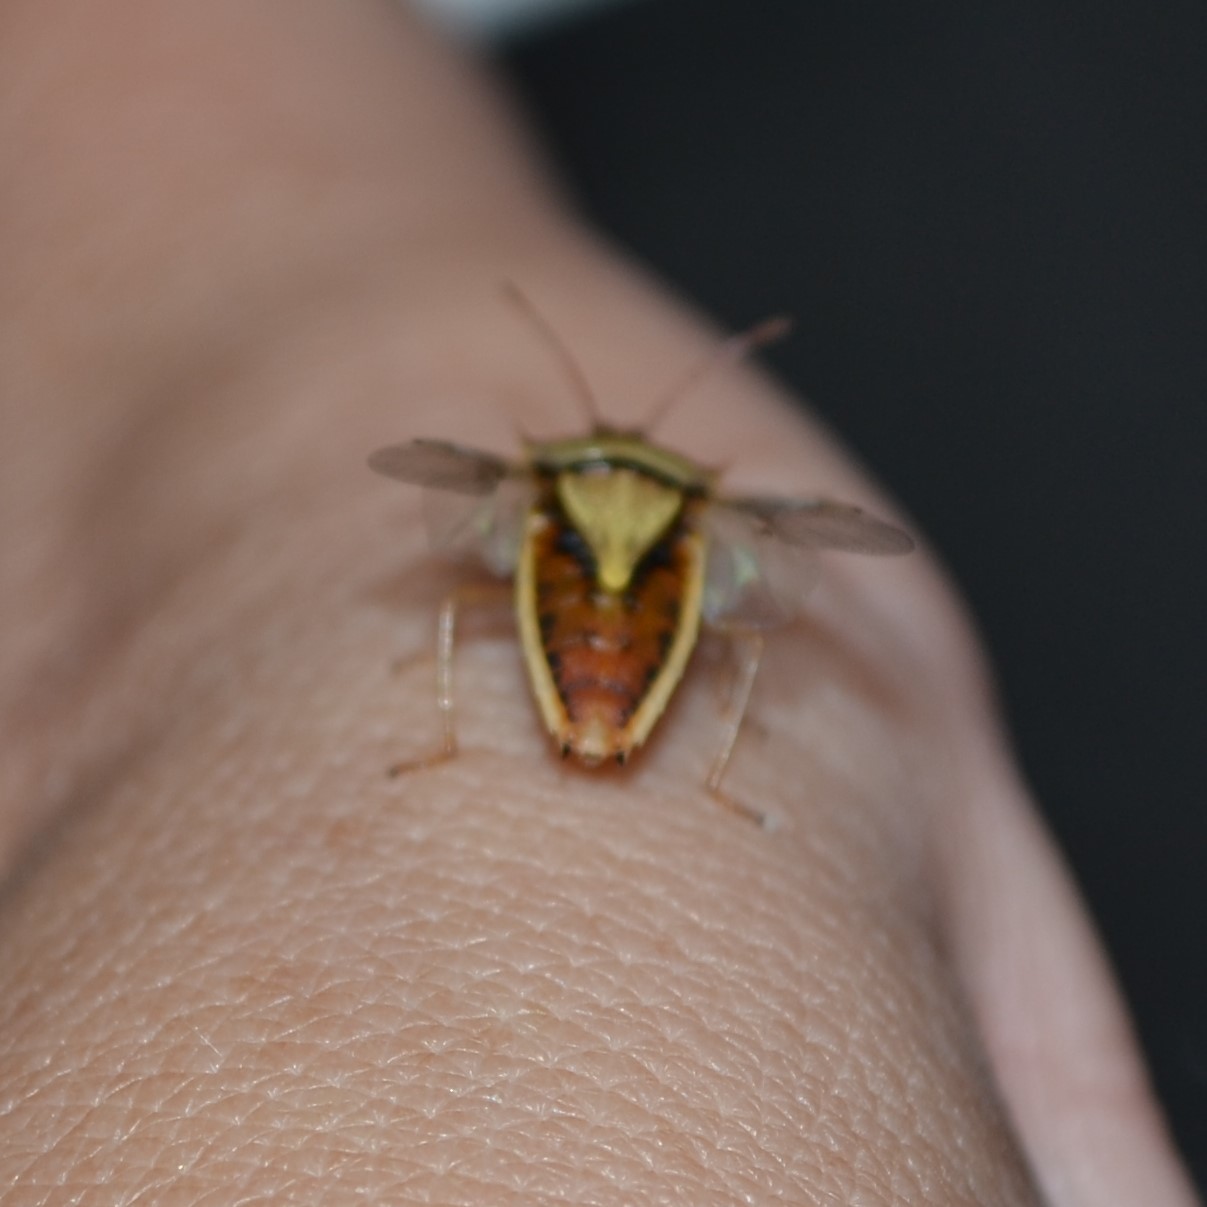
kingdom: Animalia
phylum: Arthropoda
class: Insecta
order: Hemiptera
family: Pentatomidae
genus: Oebalus
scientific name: Oebalus pugnax
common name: Rice stink bug
